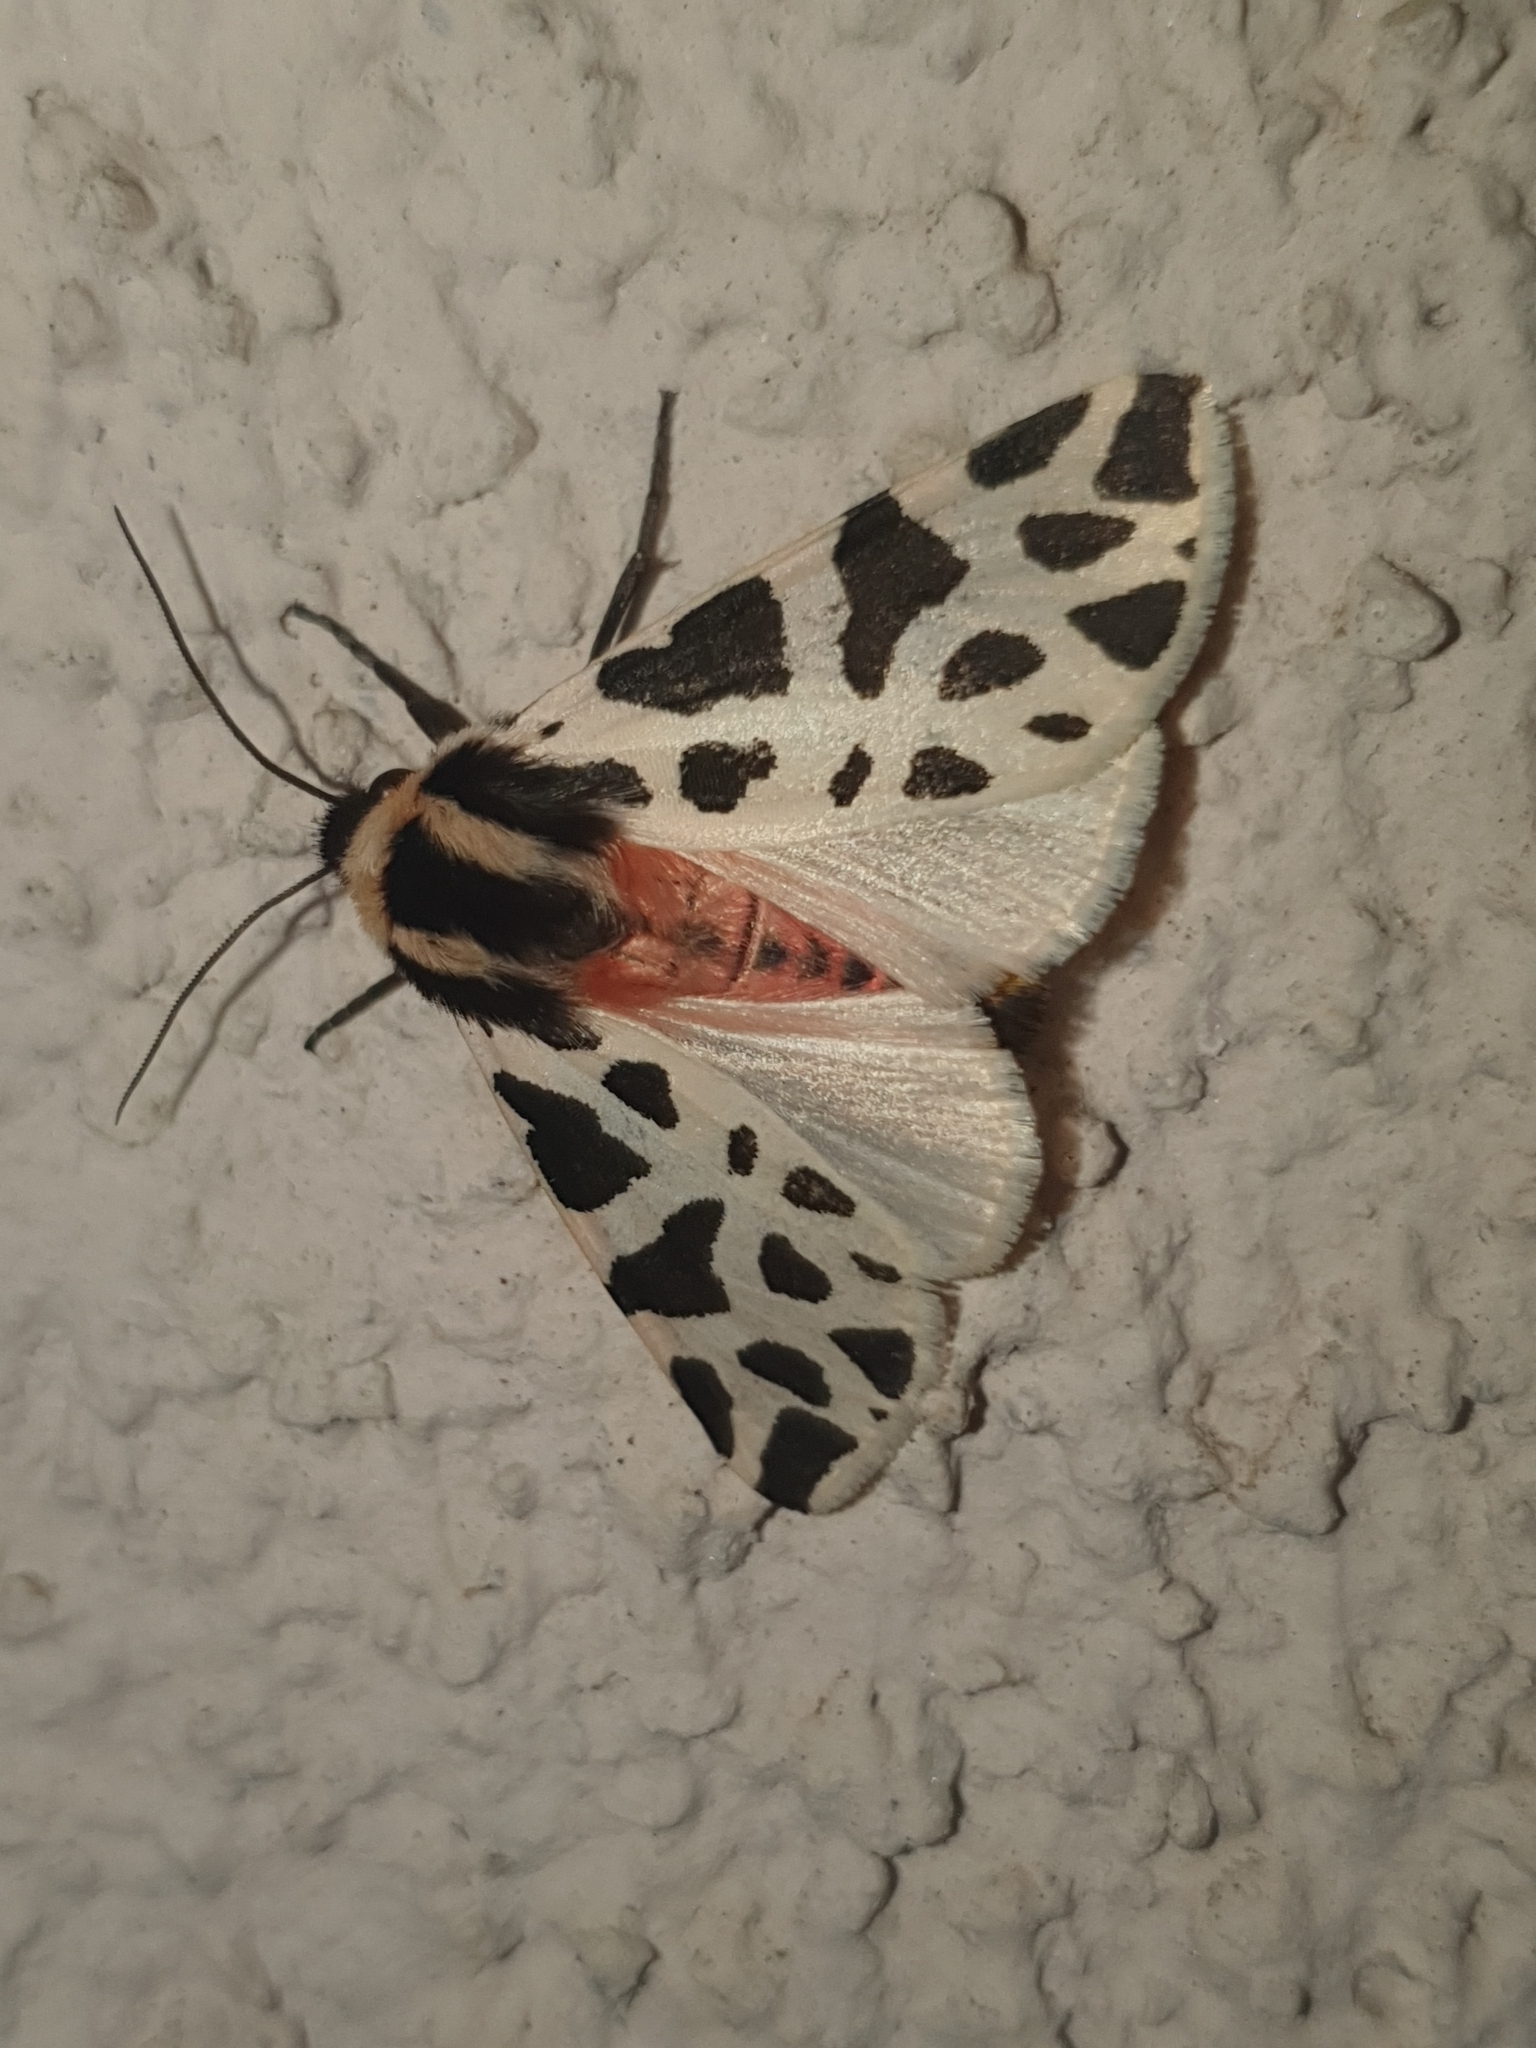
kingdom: Animalia
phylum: Arthropoda
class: Insecta
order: Lepidoptera
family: Erebidae
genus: Cymbalophora
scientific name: Cymbalophora pudica
